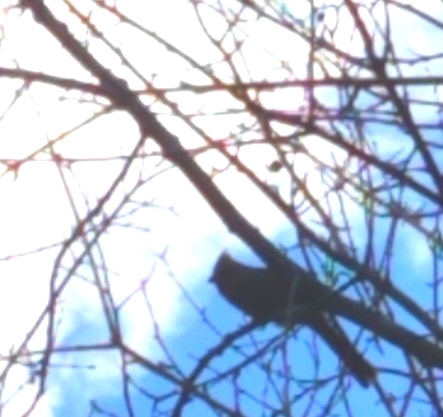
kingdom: Animalia
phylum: Chordata
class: Aves
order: Passeriformes
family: Cardinalidae
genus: Cardinalis
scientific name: Cardinalis cardinalis
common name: Northern cardinal
